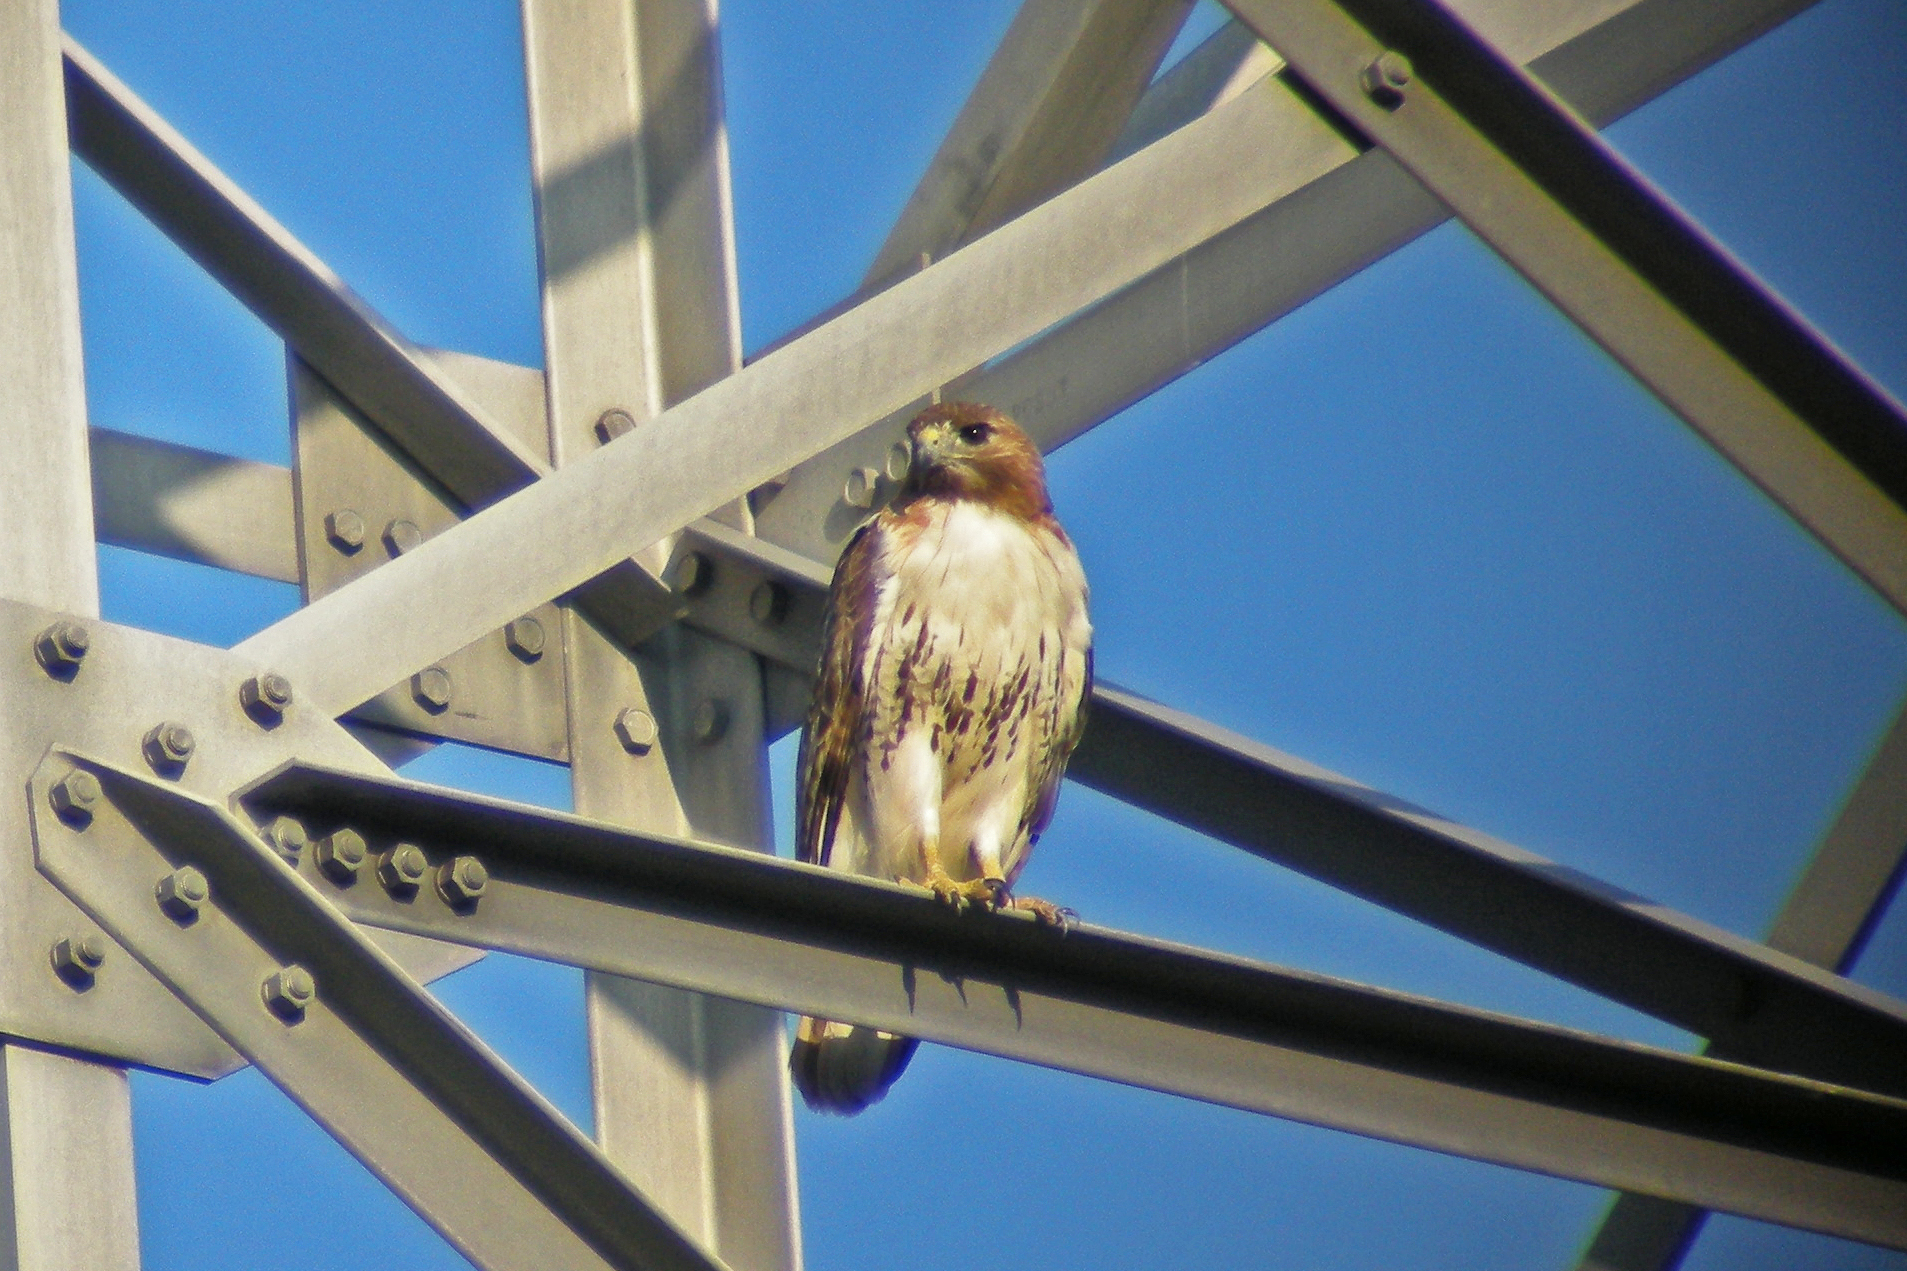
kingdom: Animalia
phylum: Chordata
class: Aves
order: Accipitriformes
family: Accipitridae
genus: Buteo
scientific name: Buteo jamaicensis
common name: Red-tailed hawk
